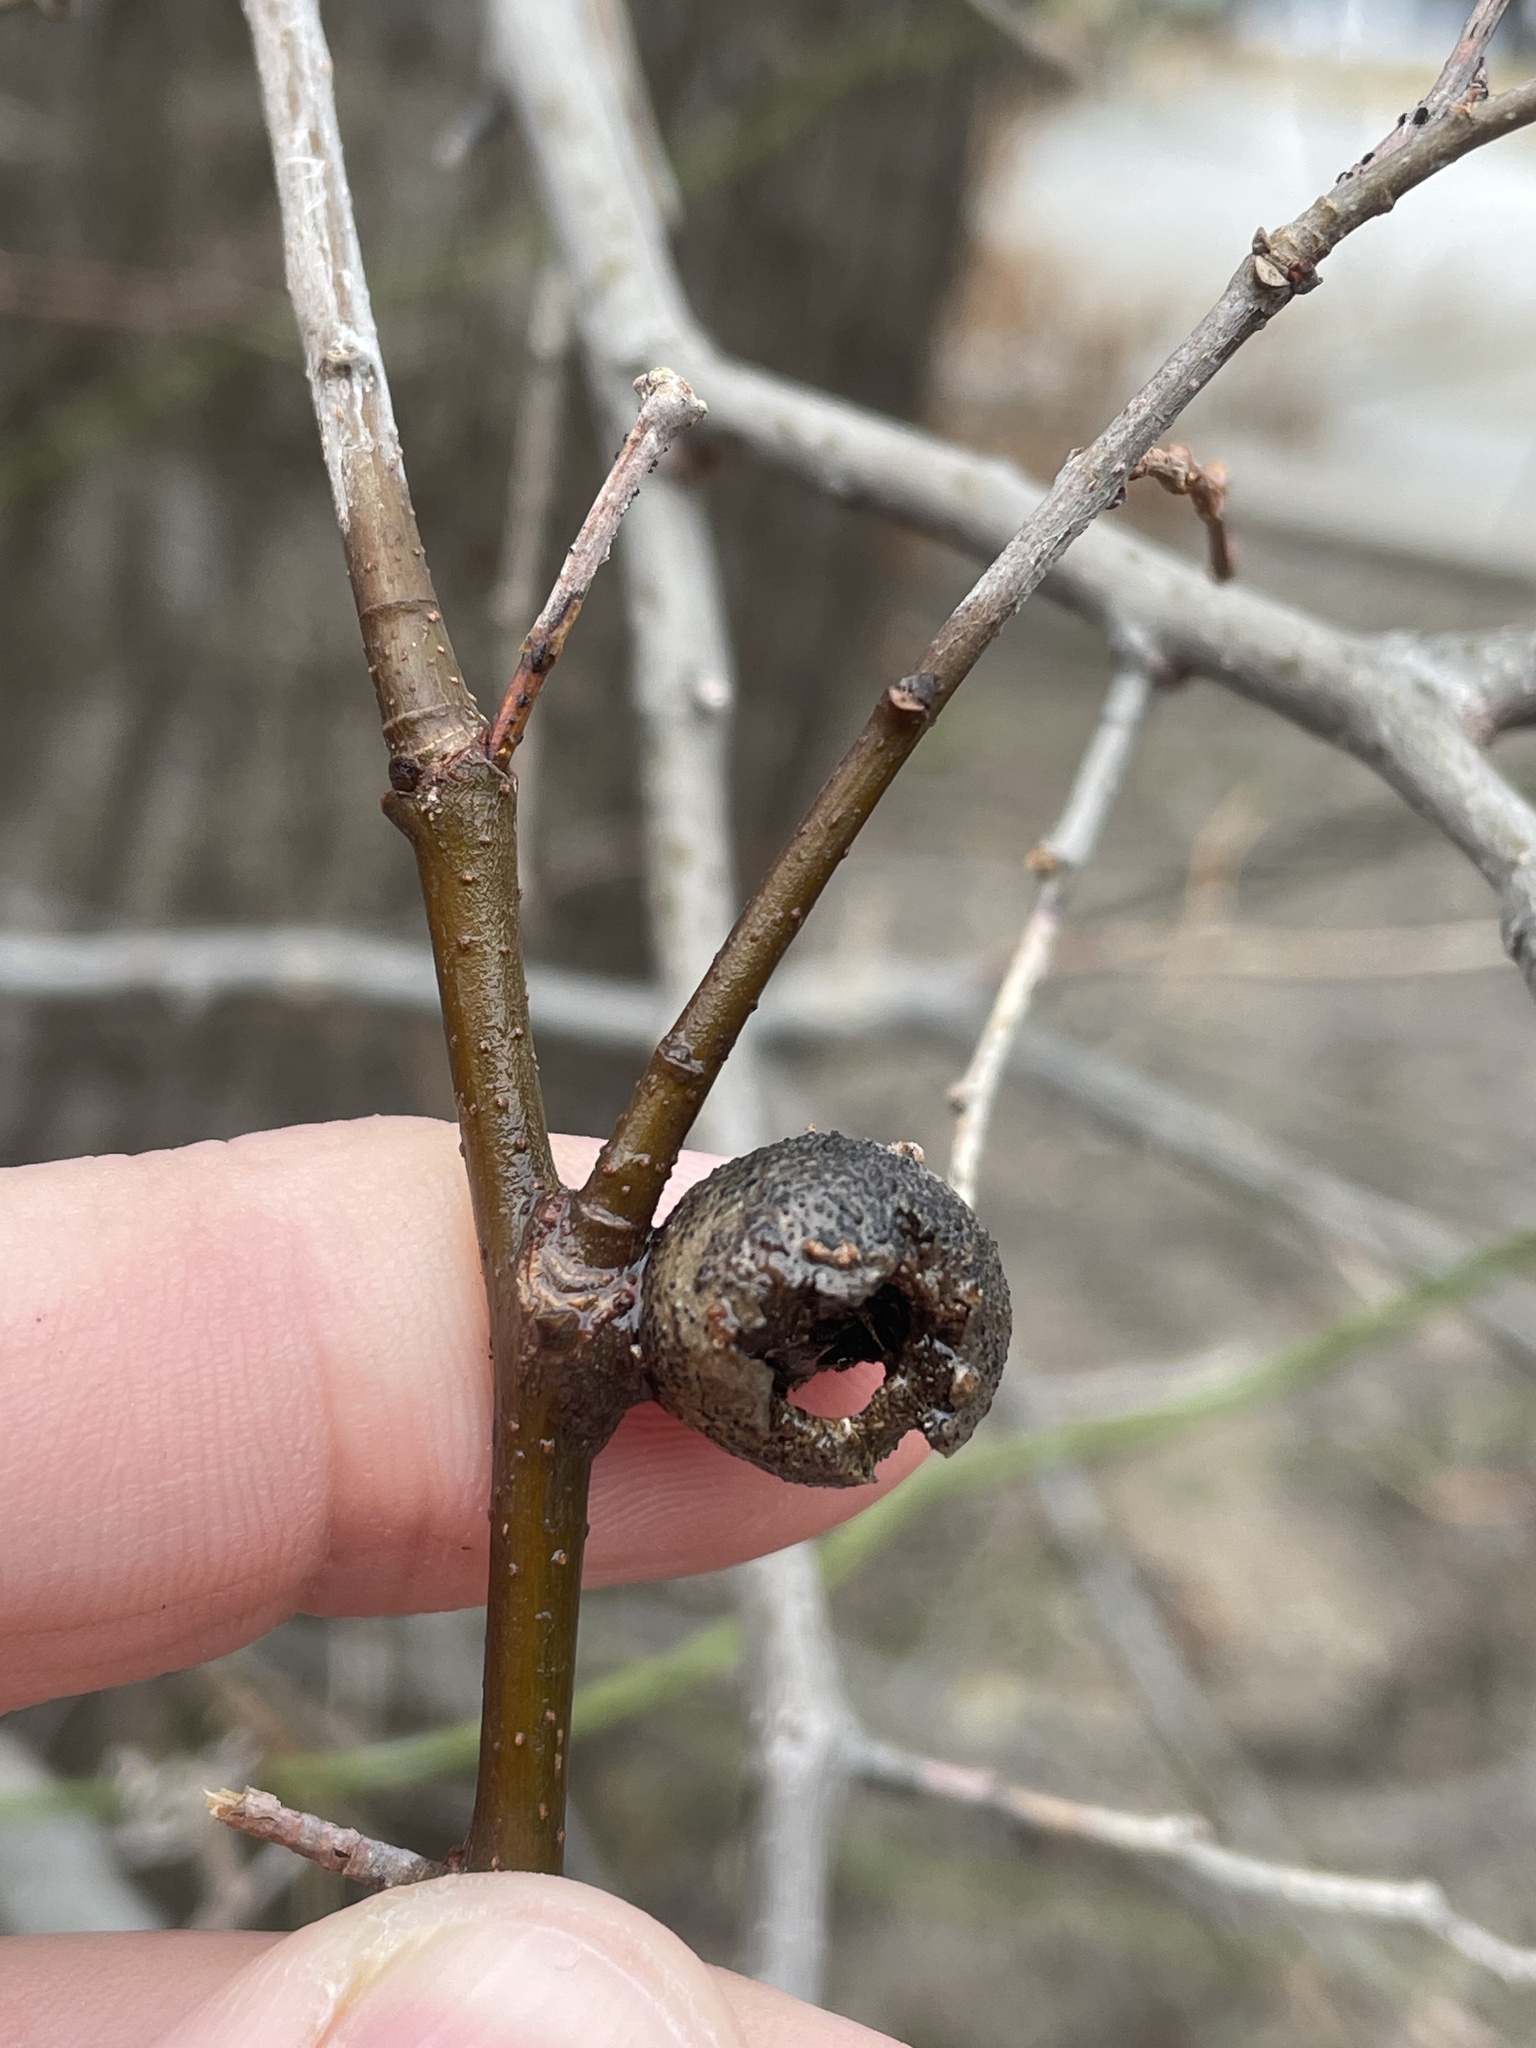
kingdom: Animalia
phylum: Arthropoda
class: Insecta
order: Hemiptera
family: Aphalaridae
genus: Pachypsylla
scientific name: Pachypsylla venusta
